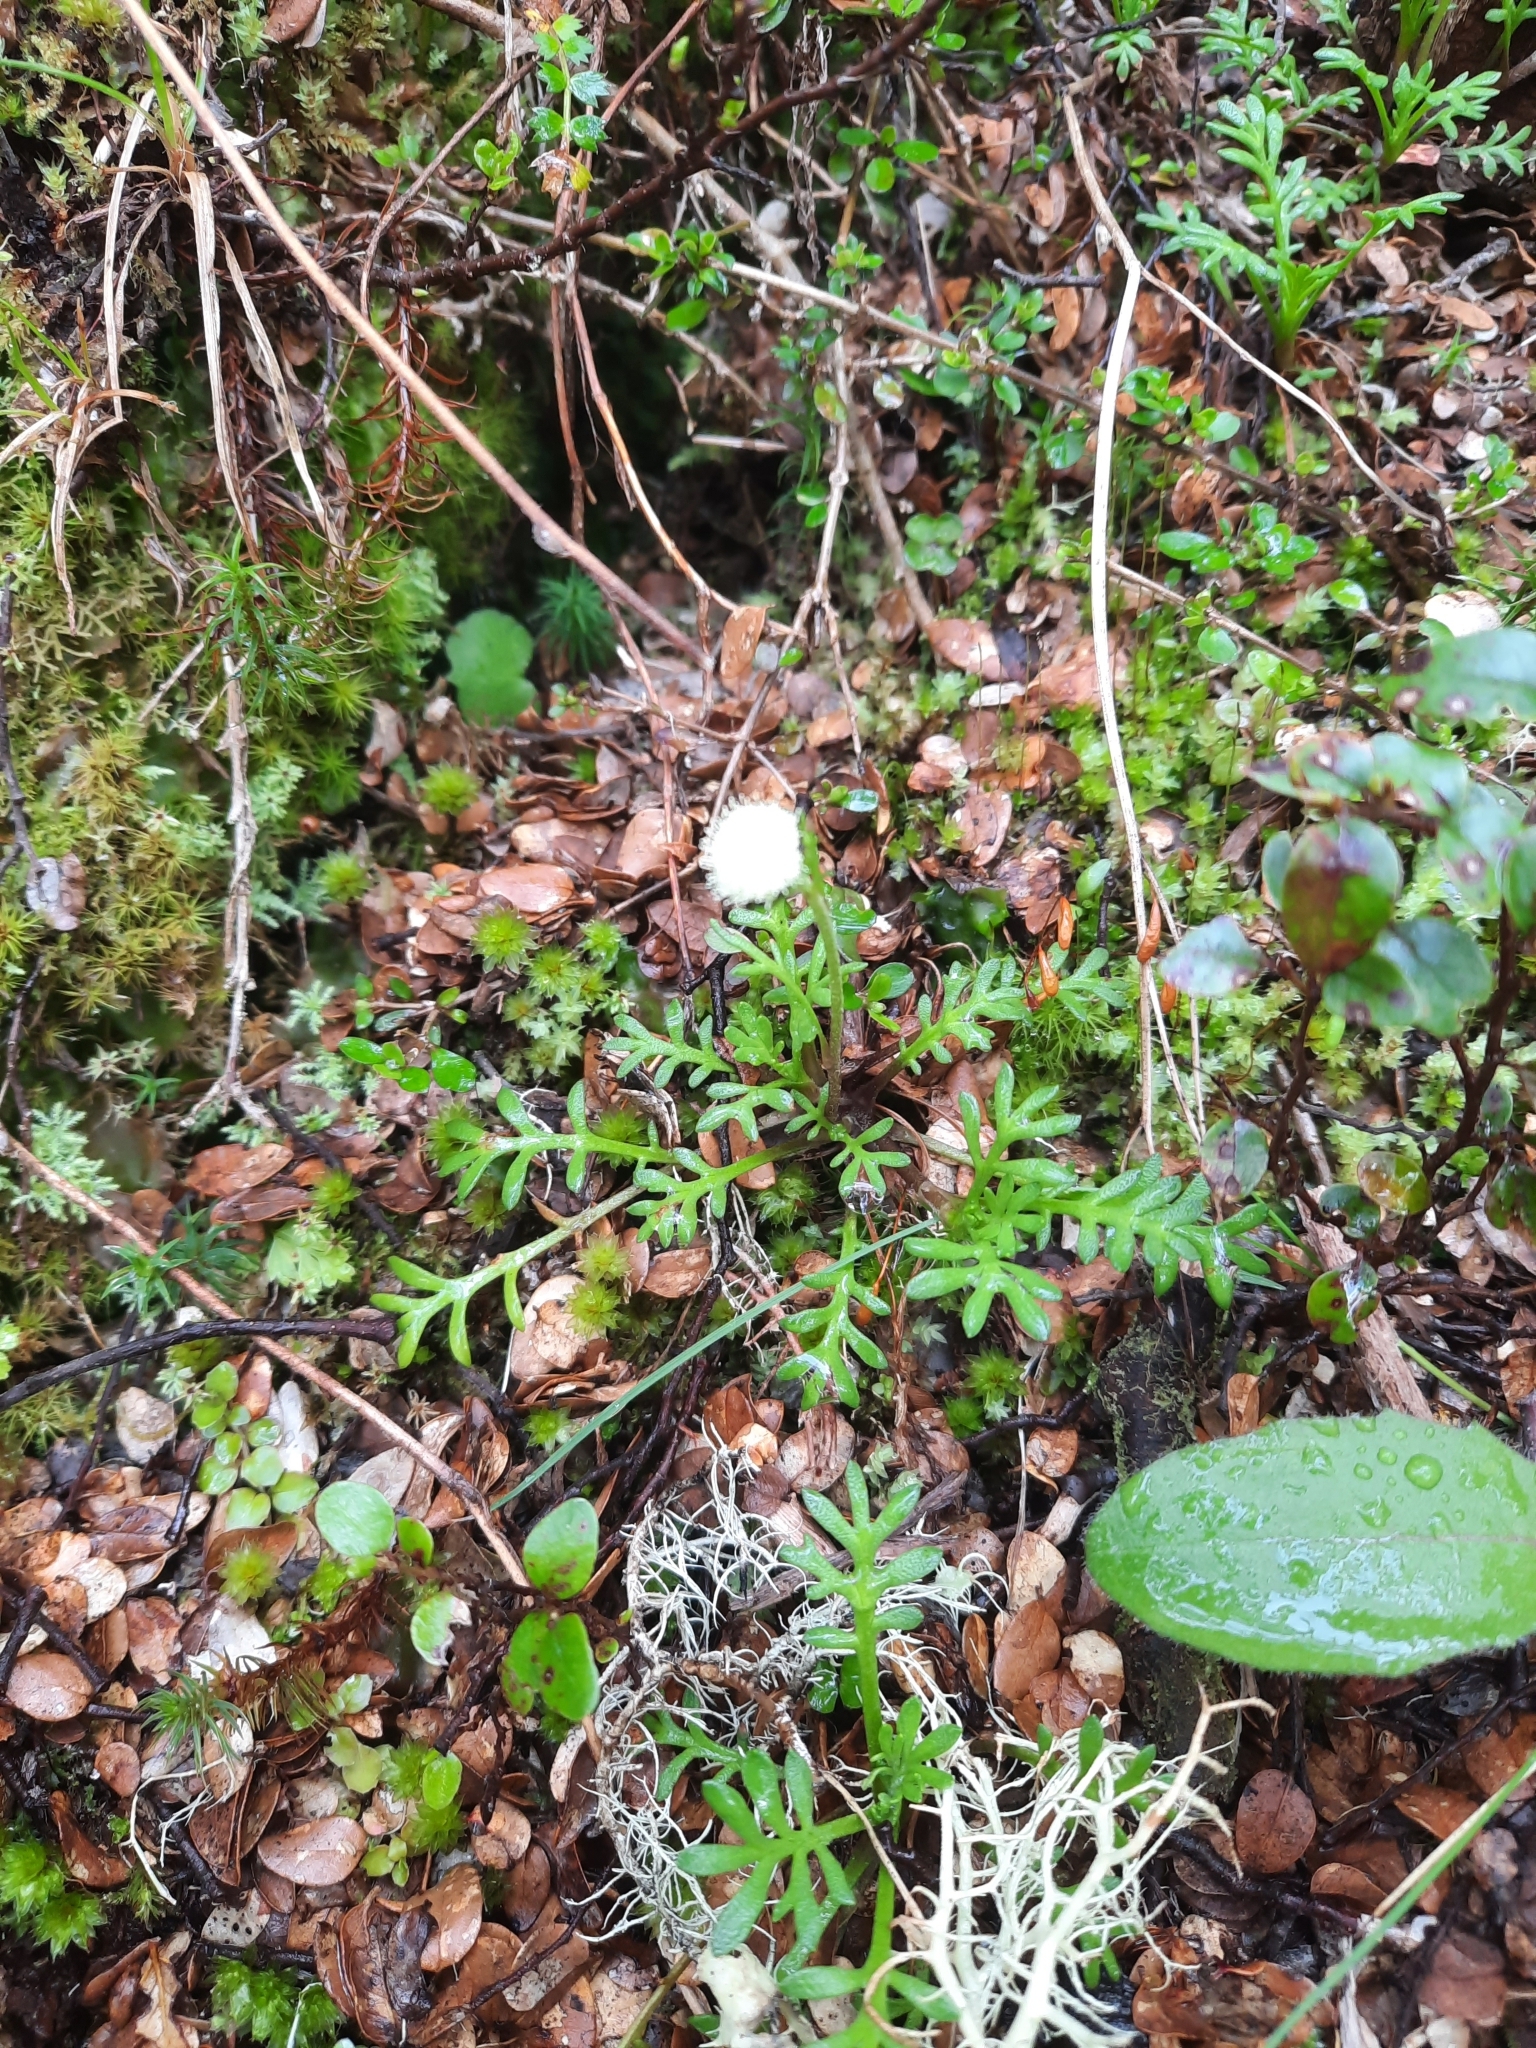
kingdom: Plantae
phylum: Tracheophyta
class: Magnoliopsida
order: Asterales
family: Asteraceae
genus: Leptinella
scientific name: Leptinella pyrethrifolia
